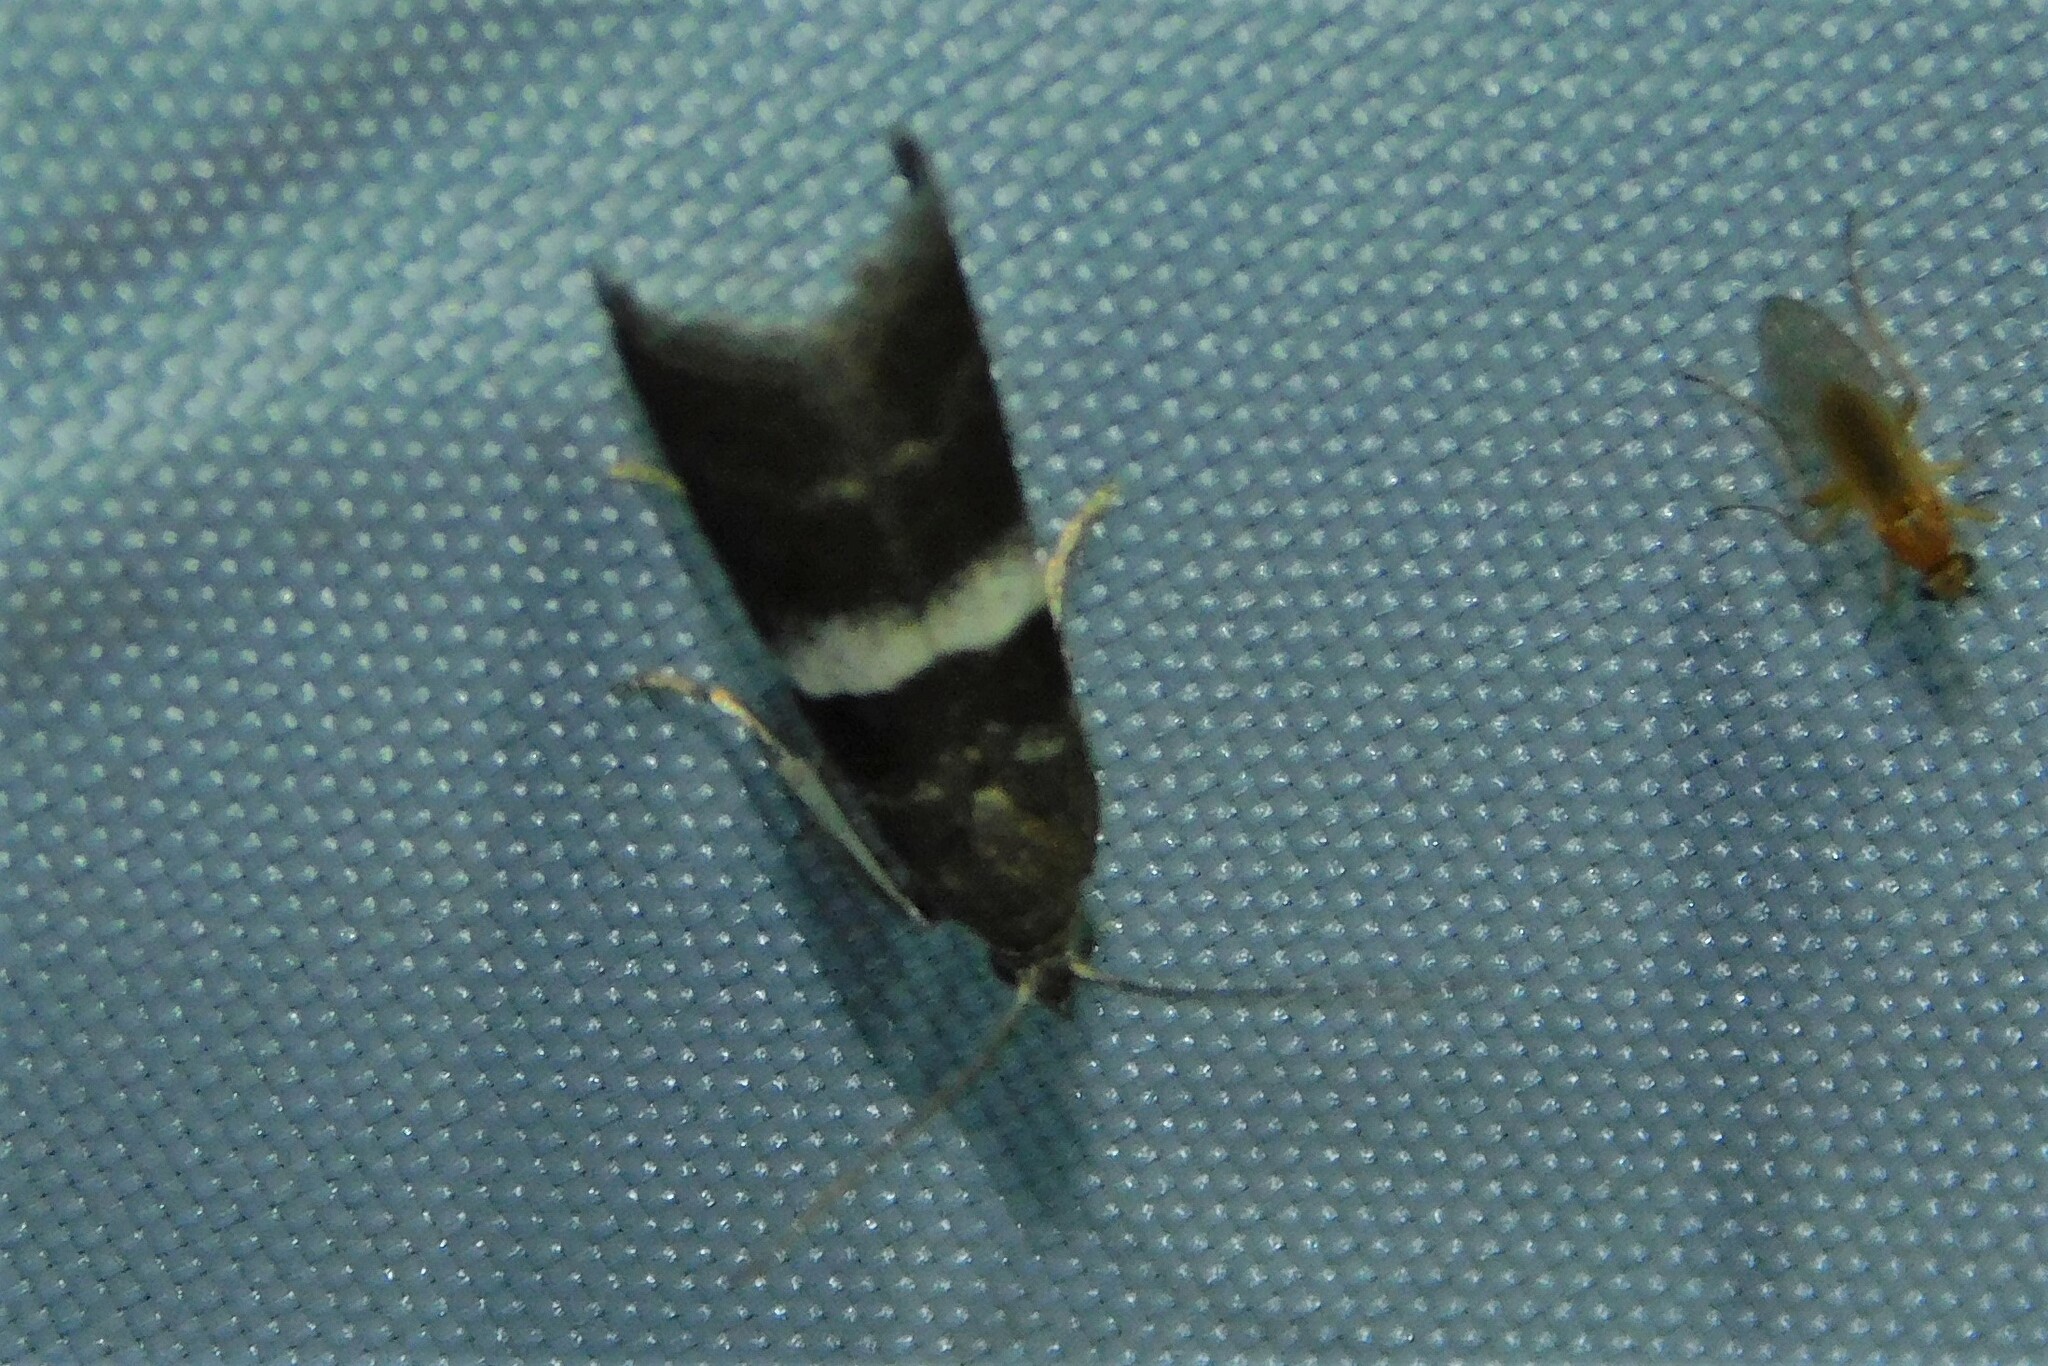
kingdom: Animalia
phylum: Arthropoda
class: Insecta
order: Lepidoptera
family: Pyralidae
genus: Elegia
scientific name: Elegia similella
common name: White-barred knot-horn
